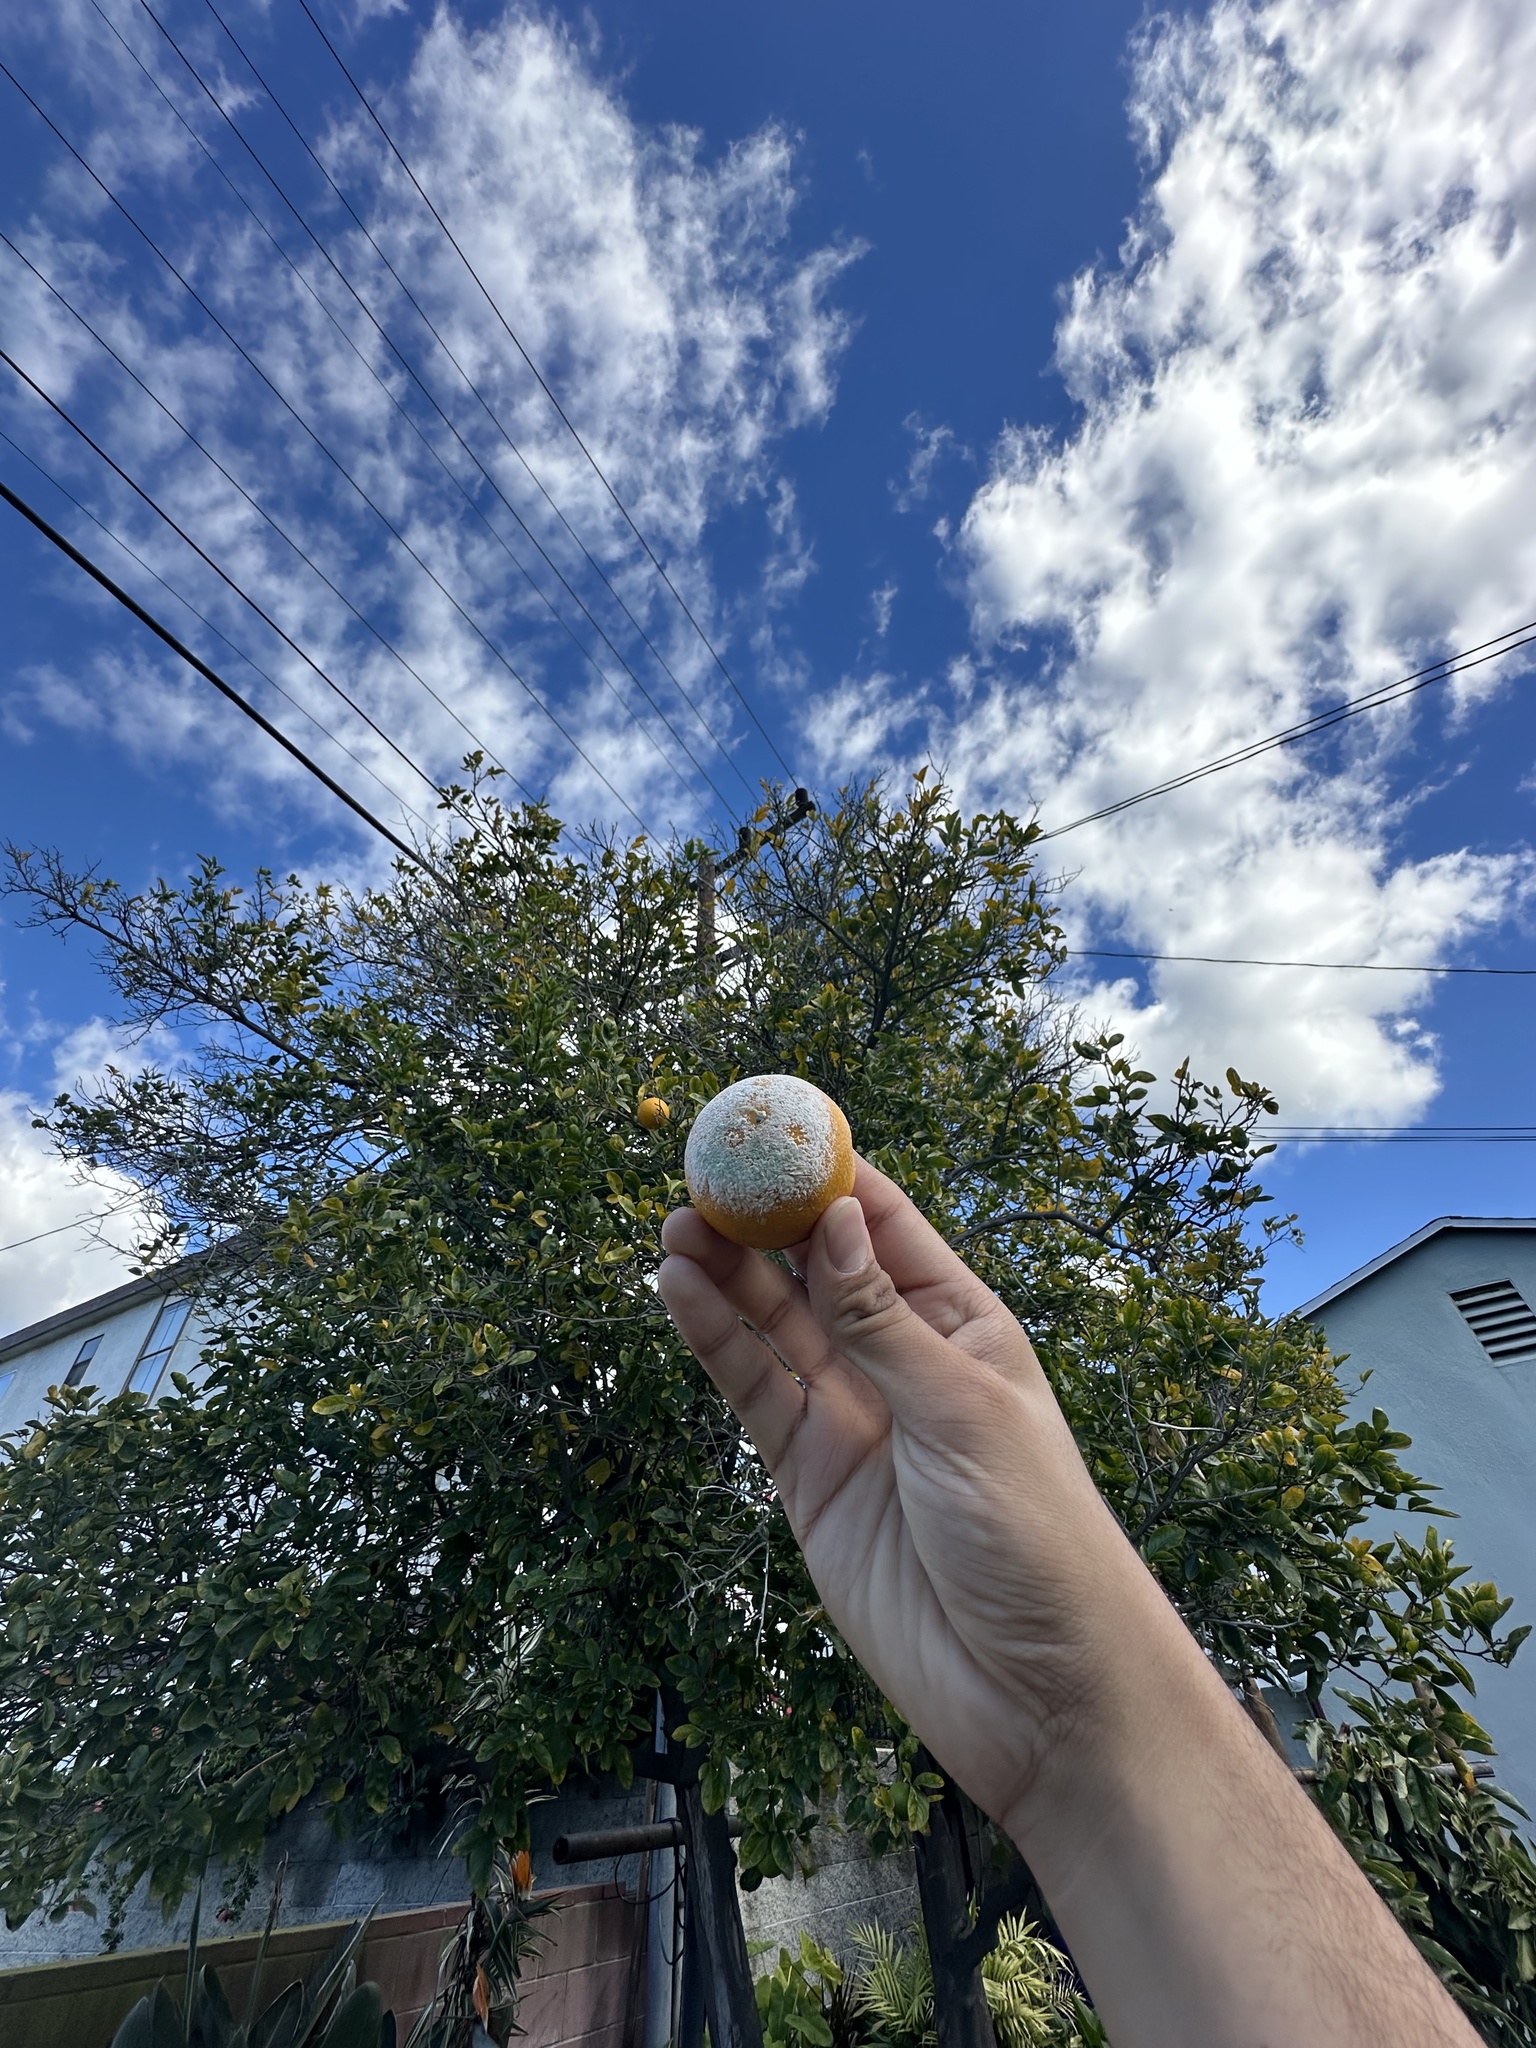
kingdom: Fungi
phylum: Ascomycota
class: Eurotiomycetes
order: Eurotiales
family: Aspergillaceae
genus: Penicillium
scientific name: Penicillium digitatum
